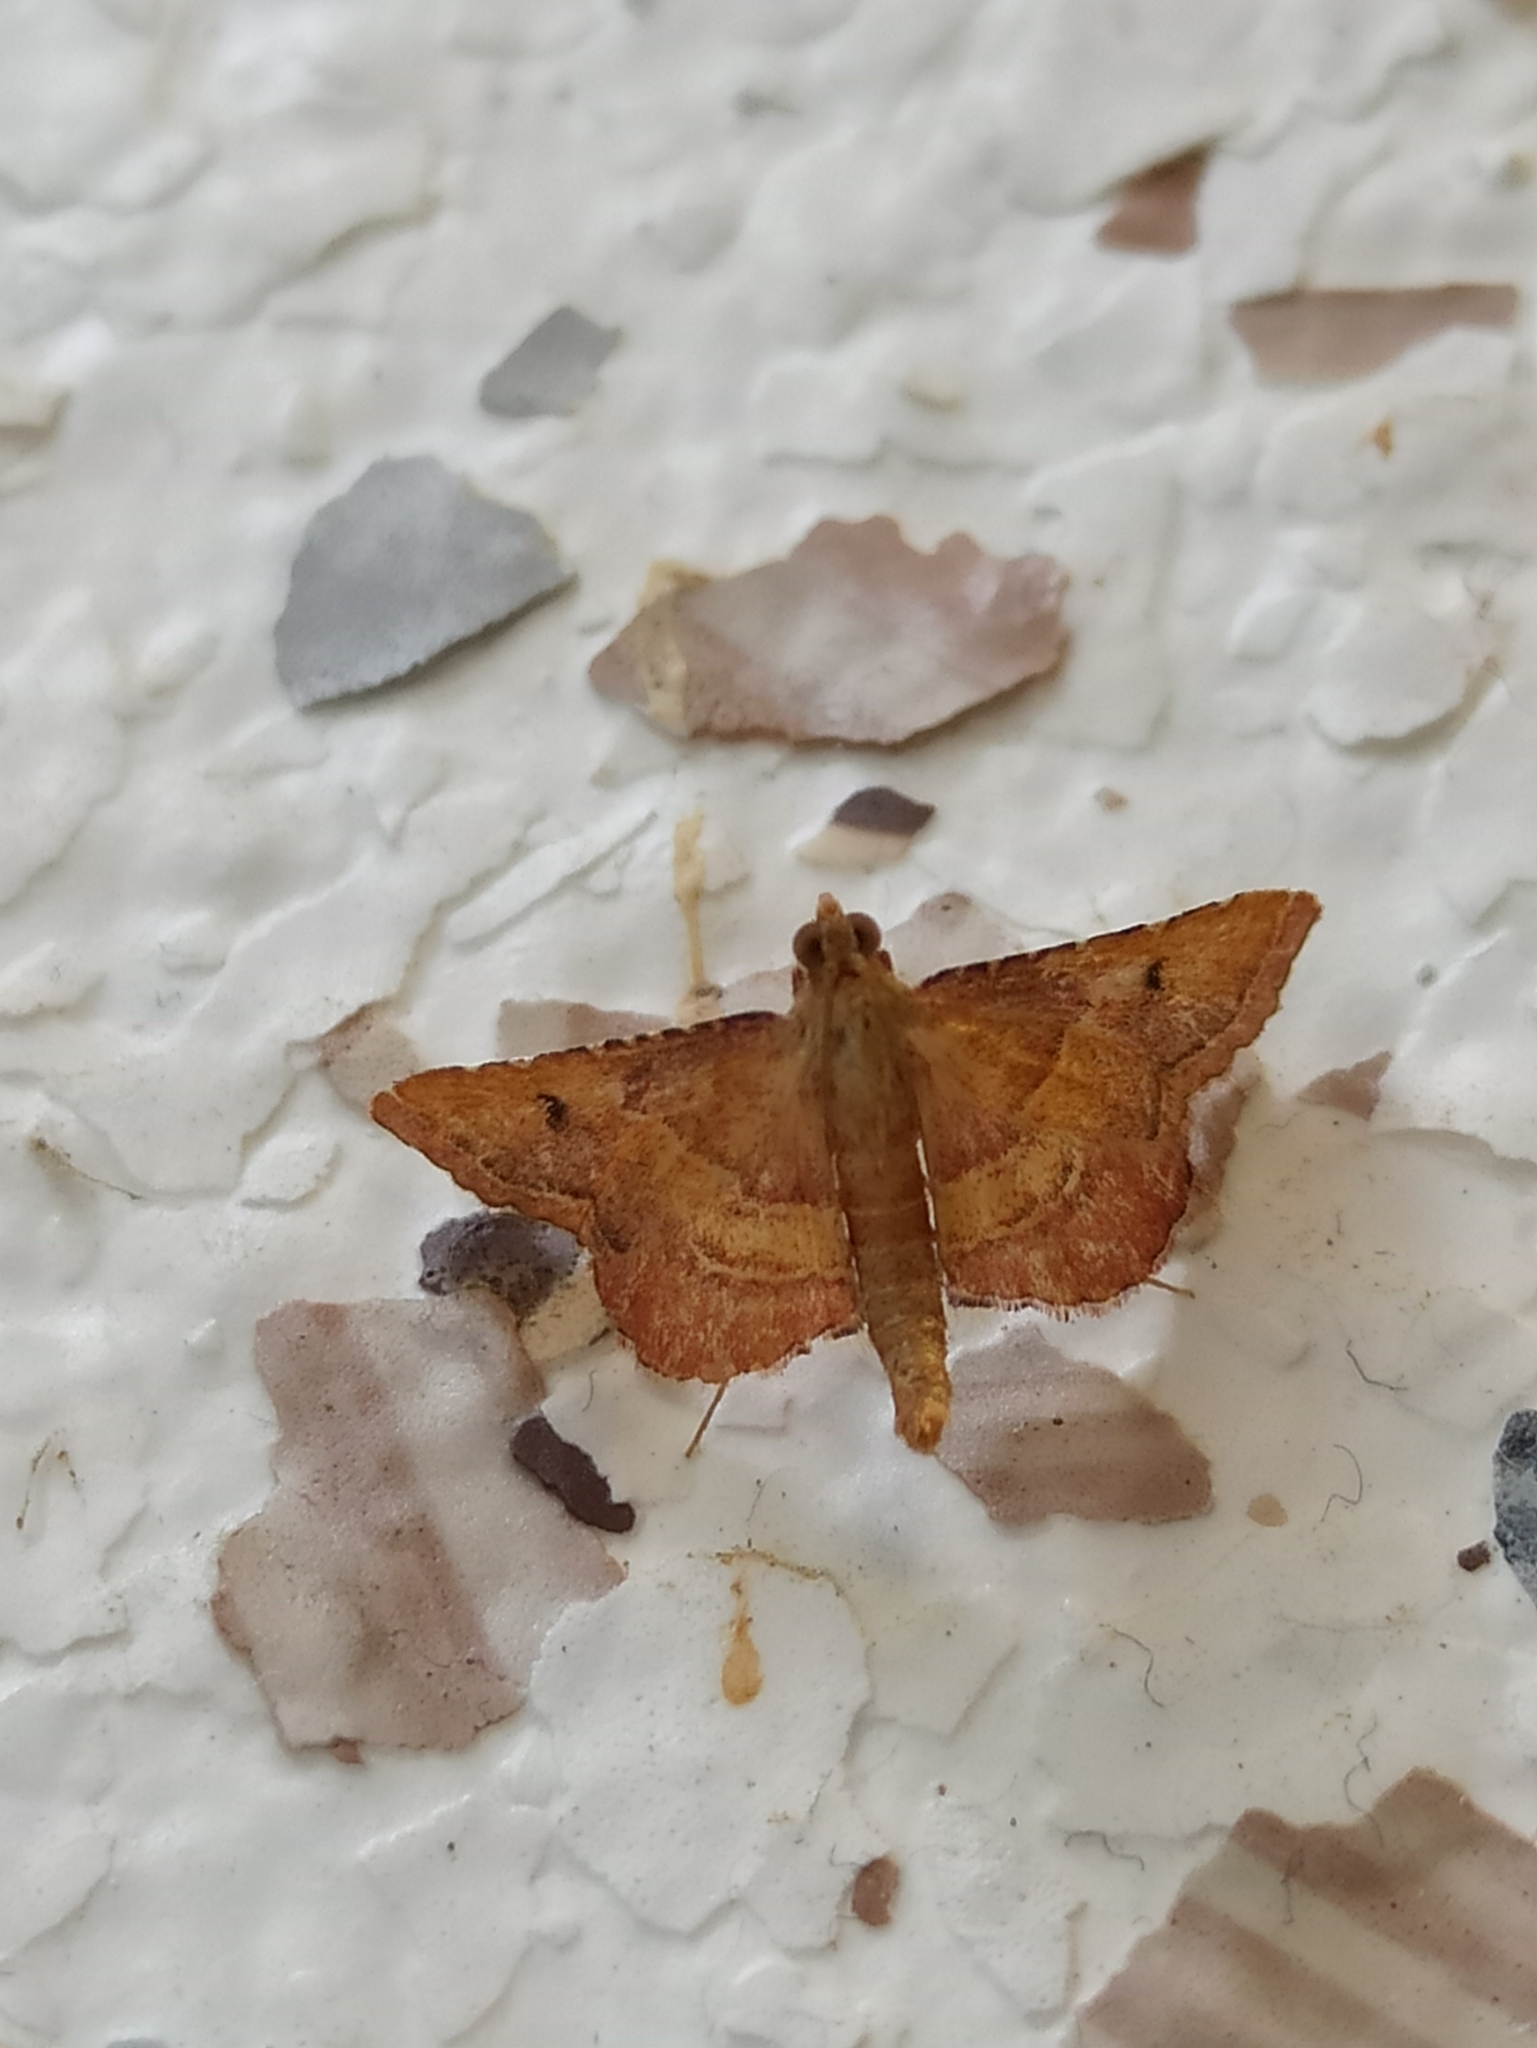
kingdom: Animalia
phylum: Arthropoda
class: Insecta
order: Lepidoptera
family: Pyralidae
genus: Endotricha
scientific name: Endotricha flammealis
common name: Rosy tabby
